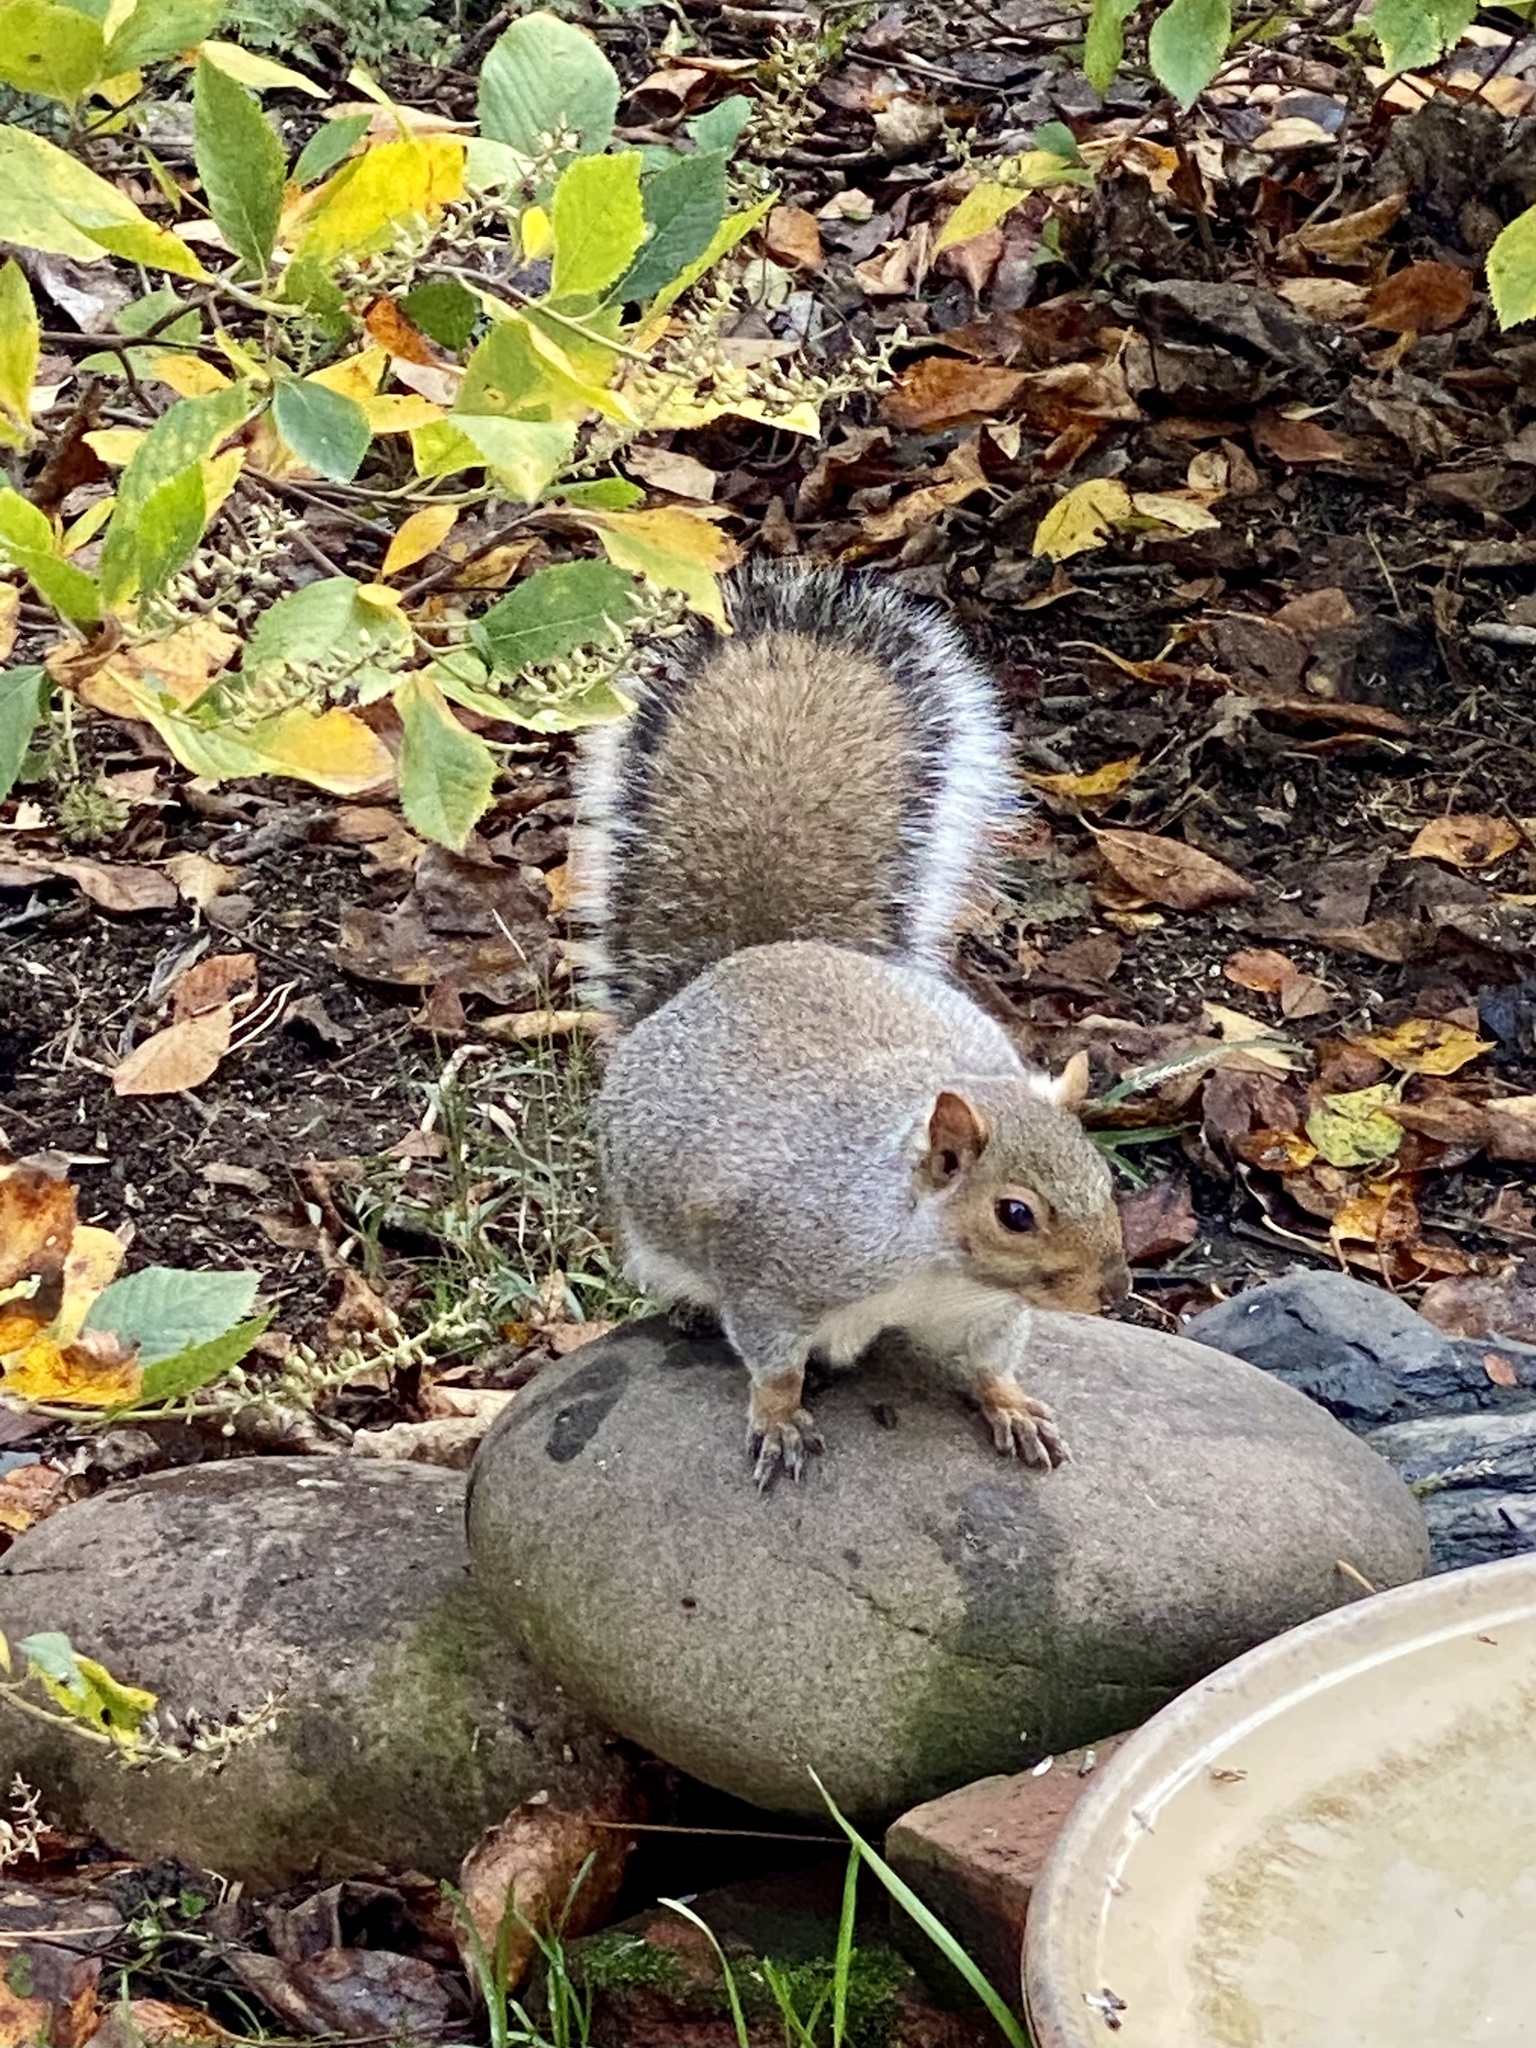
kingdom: Animalia
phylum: Chordata
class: Mammalia
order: Rodentia
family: Sciuridae
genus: Sciurus
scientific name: Sciurus carolinensis
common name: Eastern gray squirrel
